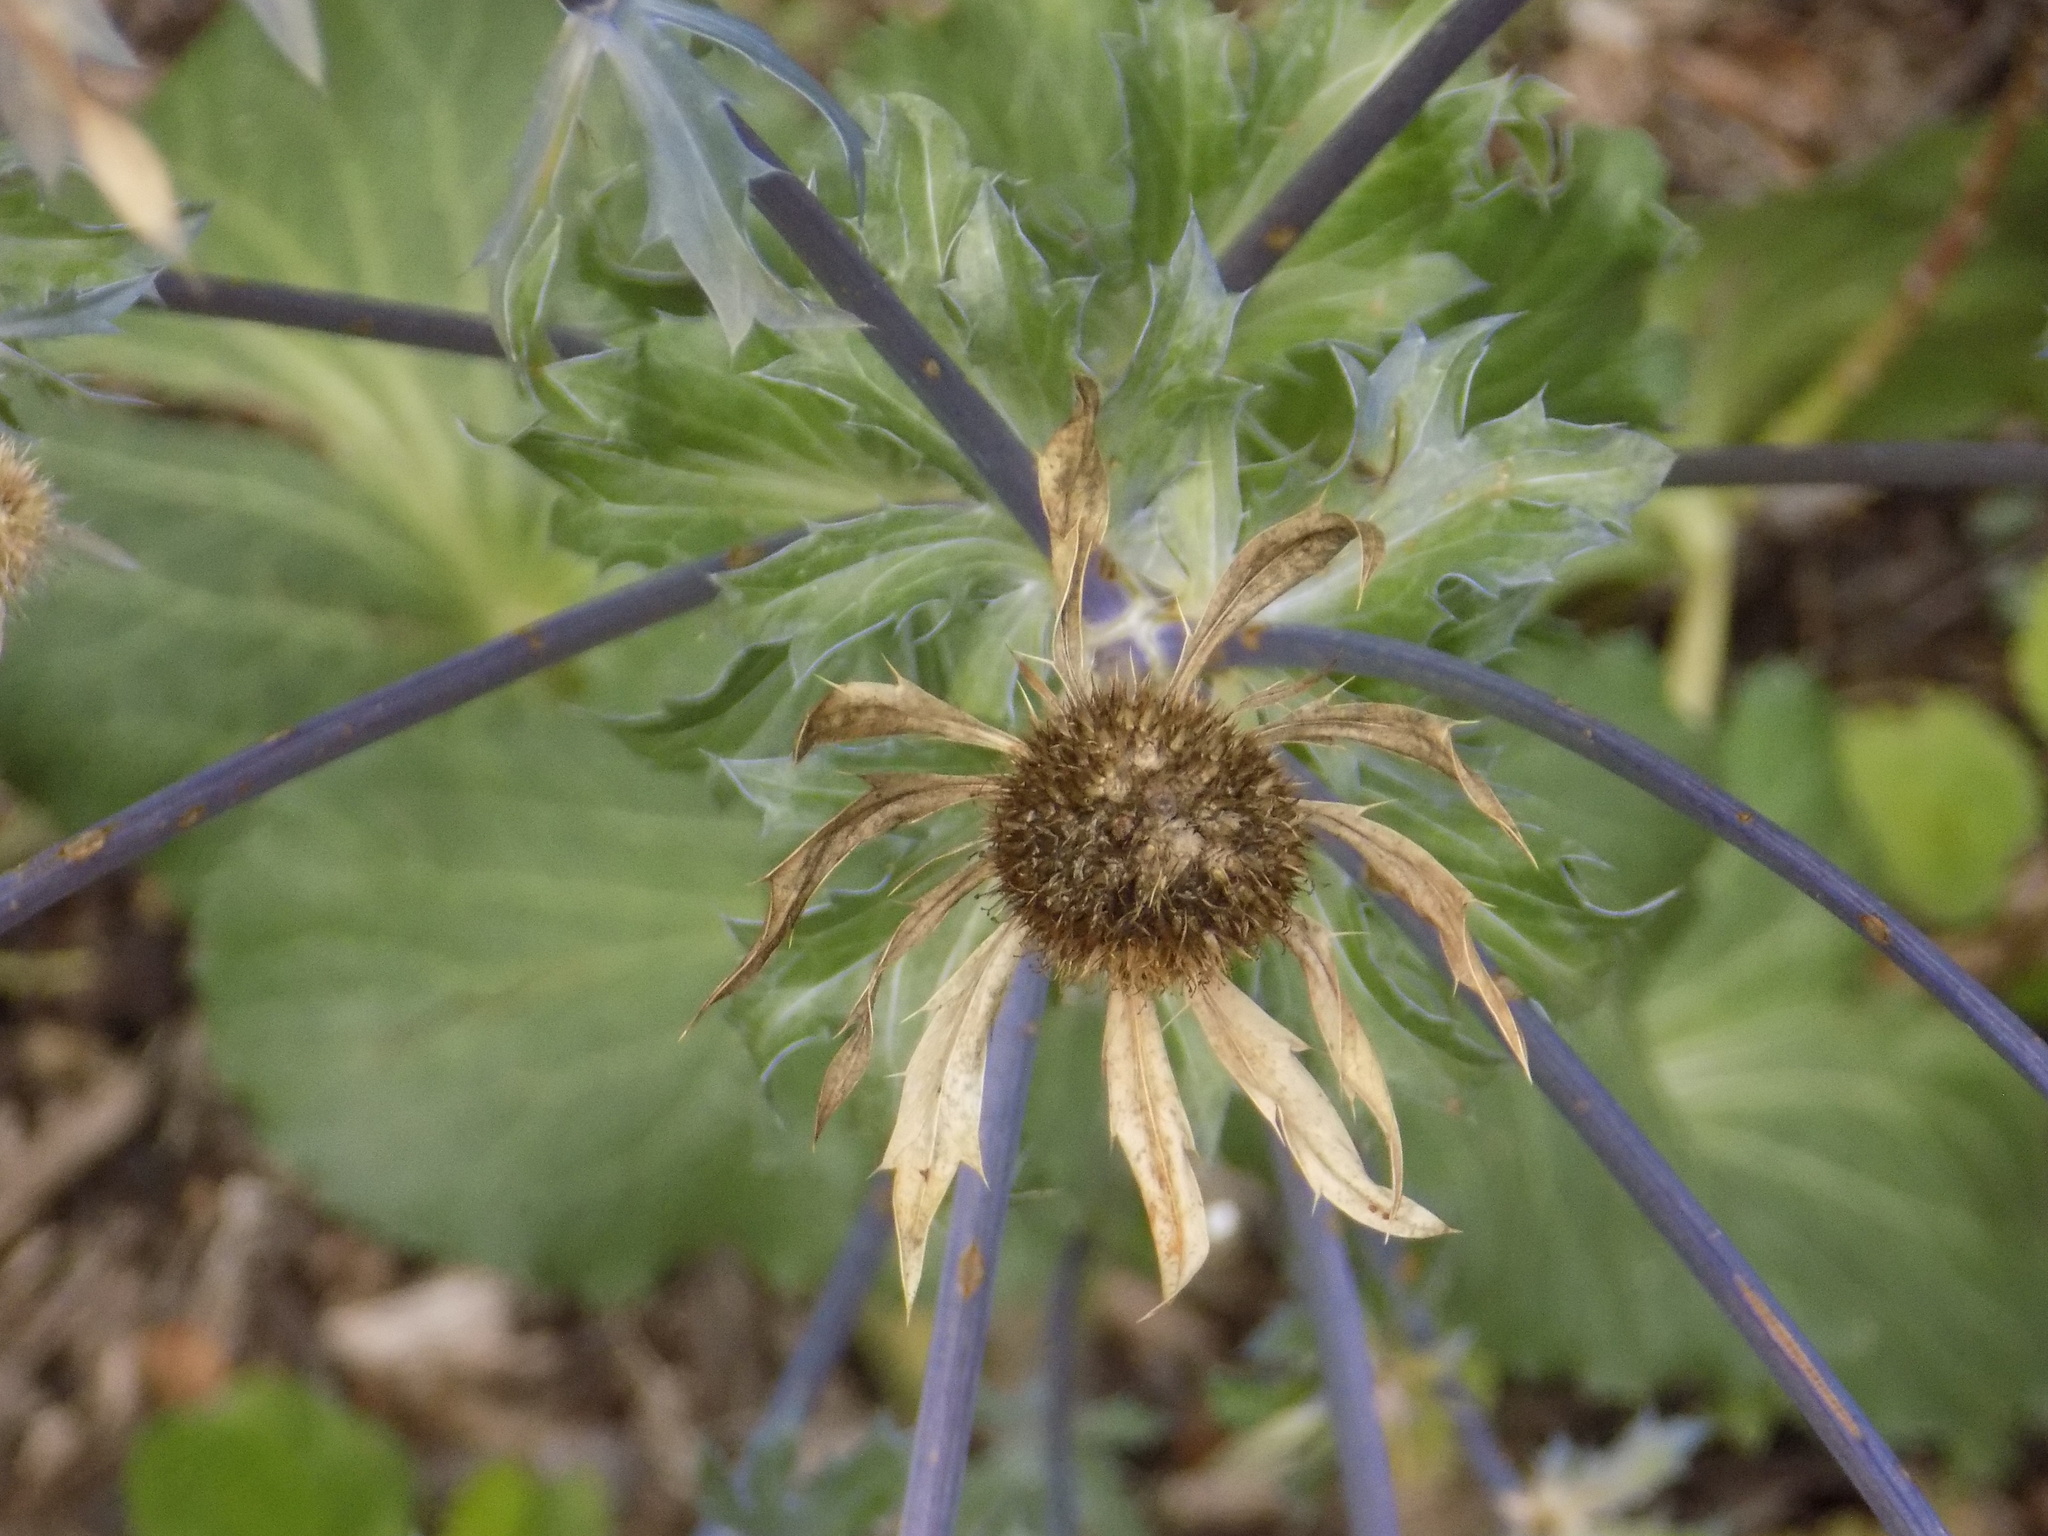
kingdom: Plantae
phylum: Tracheophyta
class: Magnoliopsida
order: Apiales
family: Apiaceae
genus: Eryngium
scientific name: Eryngium planum
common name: Blue eryngo
